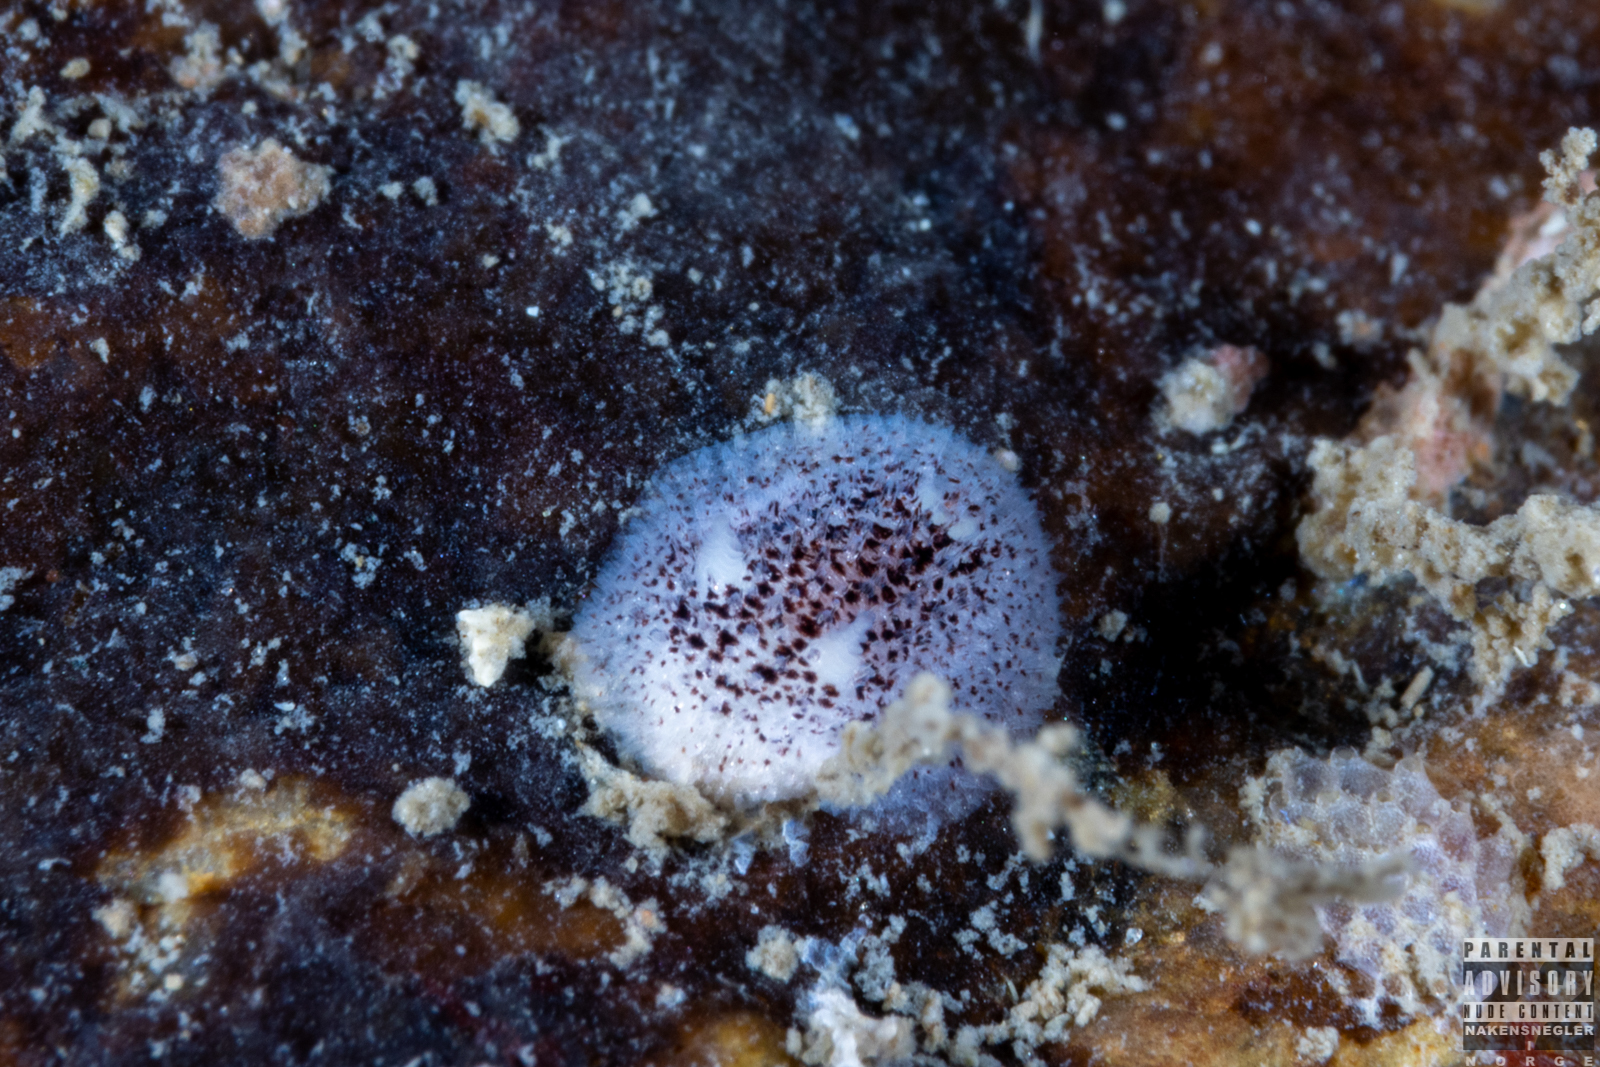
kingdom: Animalia
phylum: Mollusca
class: Gastropoda
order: Nudibranchia
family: Onchidorididae
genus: Atalodoris
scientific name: Atalodoris pusilla
